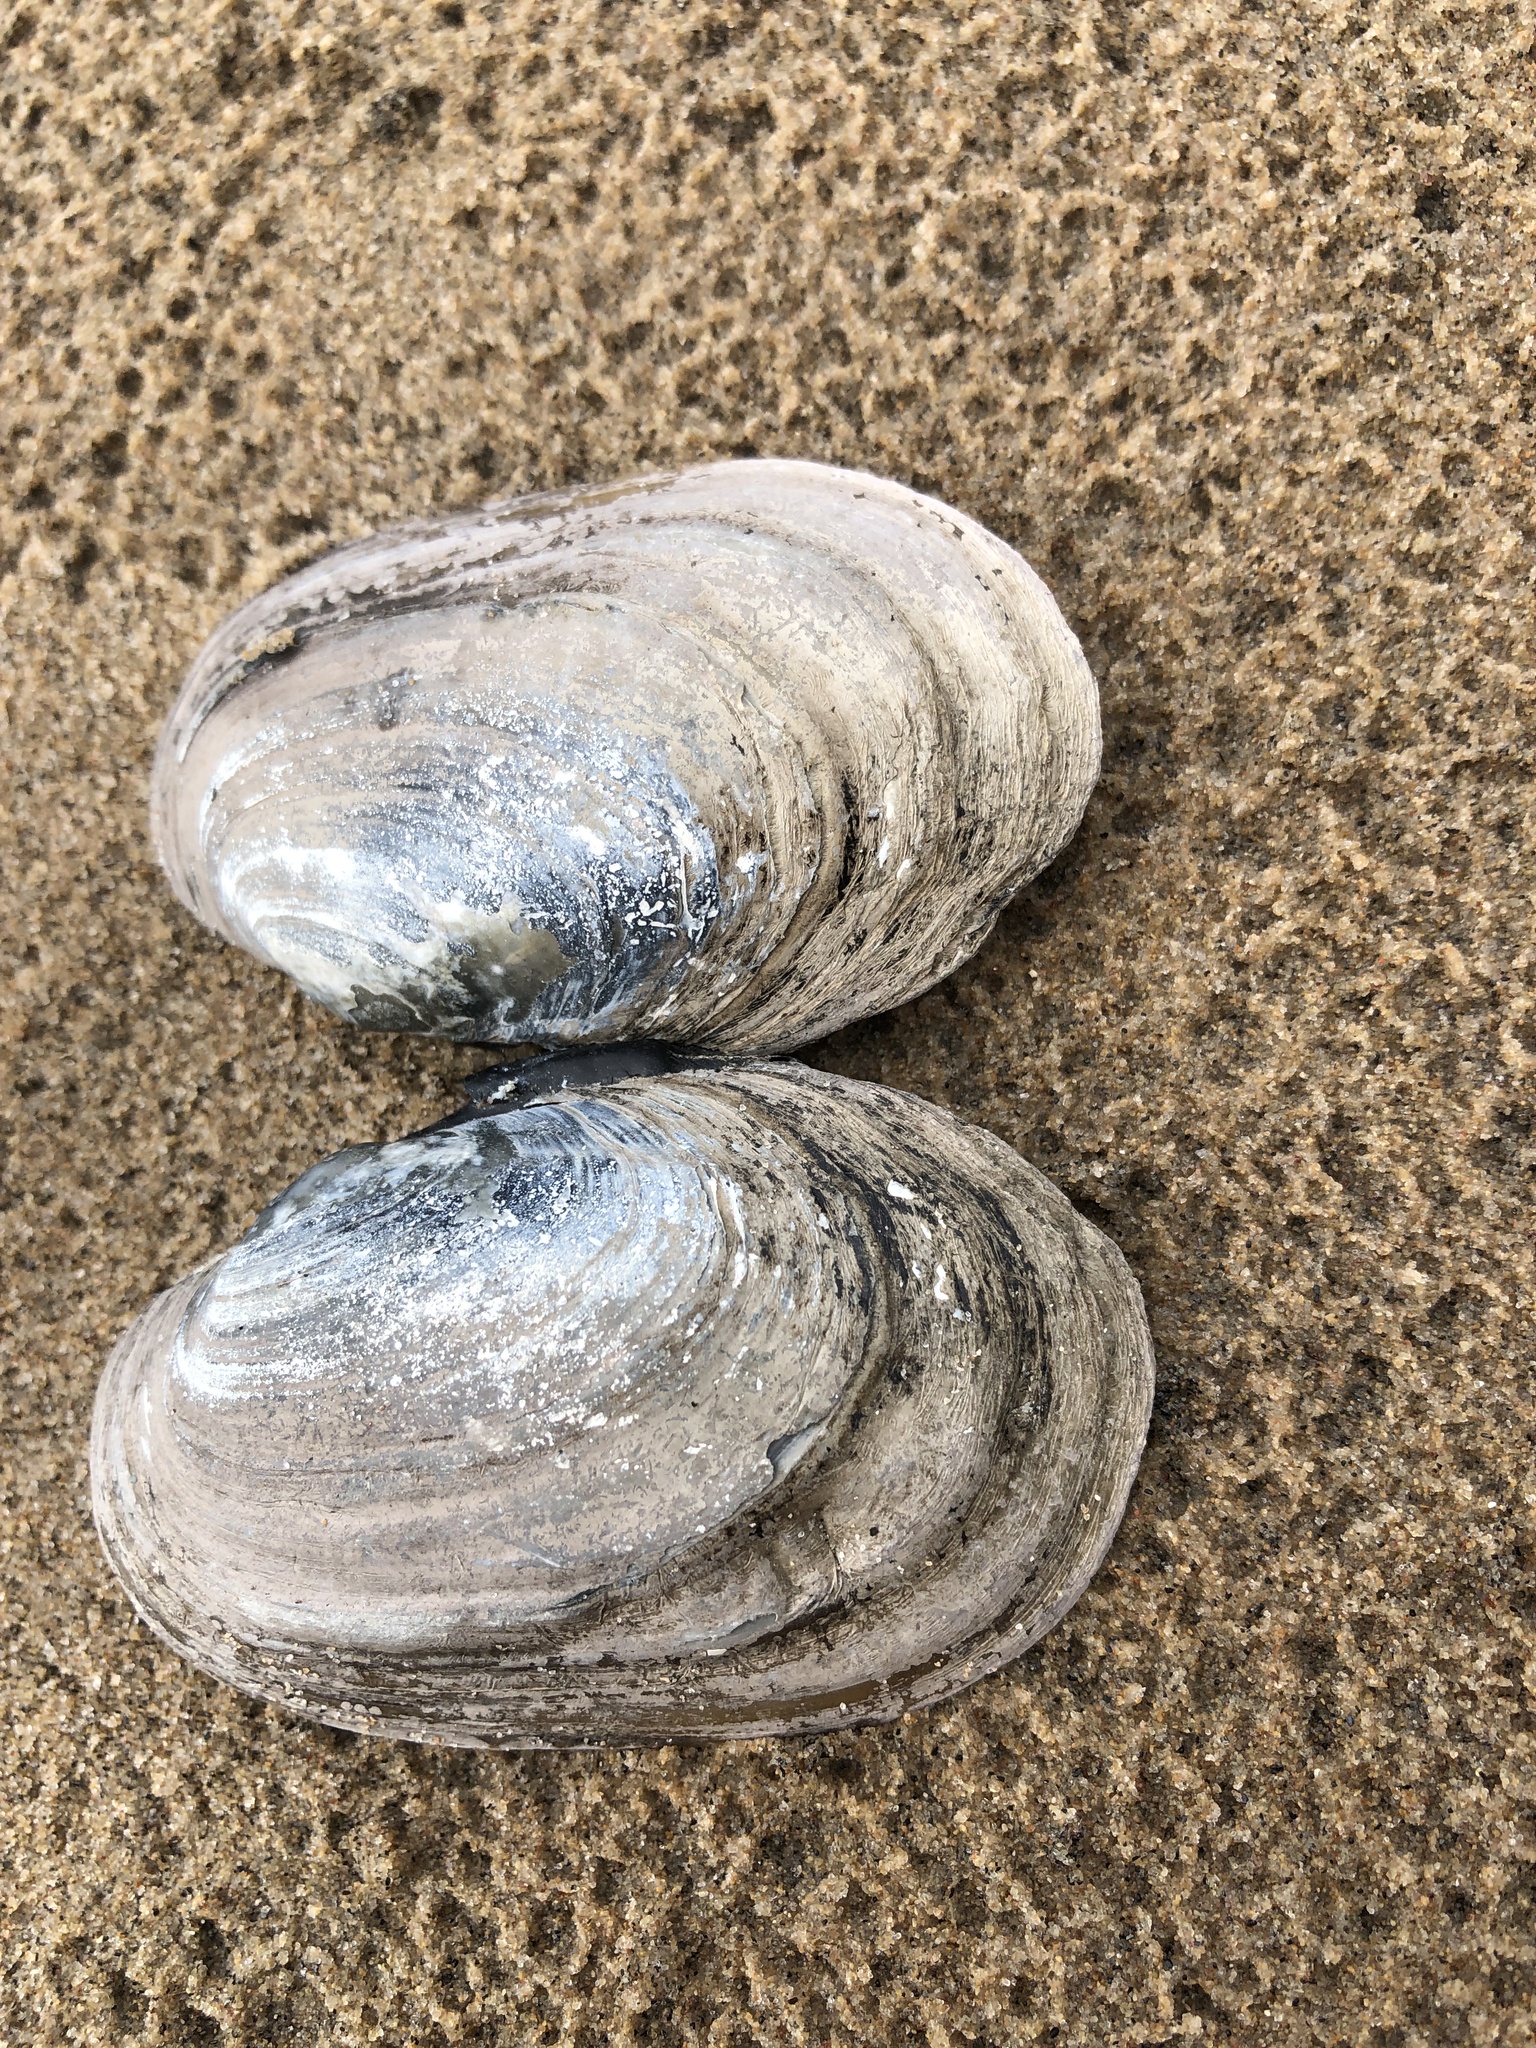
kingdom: Animalia
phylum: Mollusca
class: Bivalvia
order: Unionida
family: Unionidae
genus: Lampsilis
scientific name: Lampsilis siliquoidea
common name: Fatmucket
